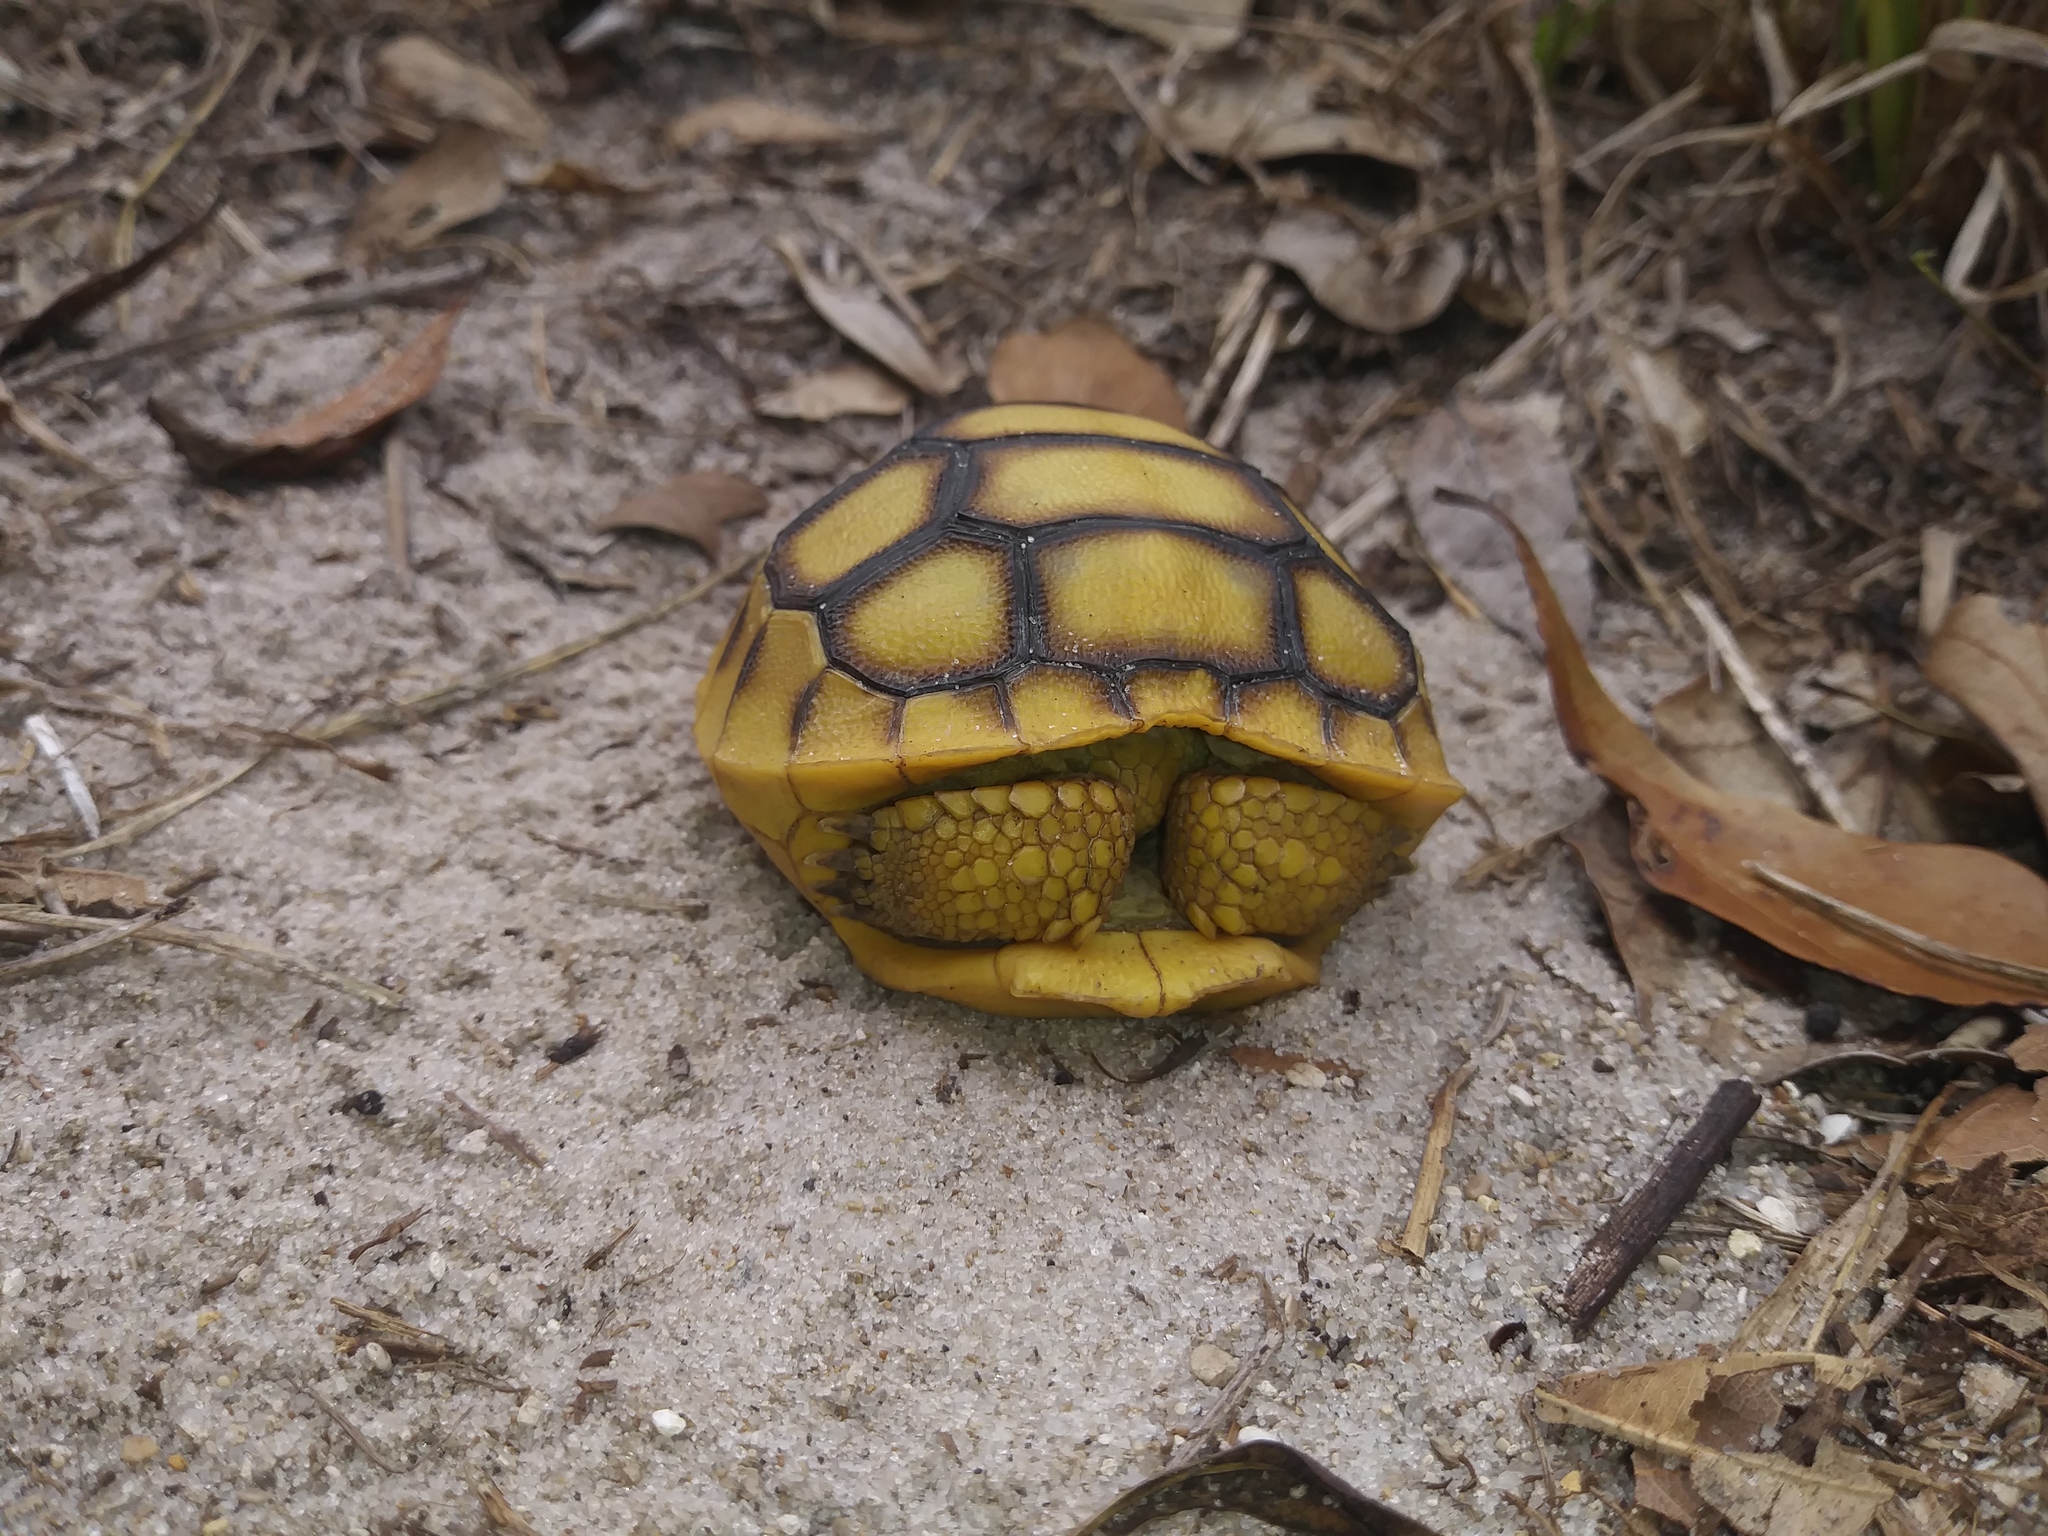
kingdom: Animalia
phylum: Chordata
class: Testudines
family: Testudinidae
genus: Gopherus
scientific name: Gopherus polyphemus
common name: Florida gopher tortoise
